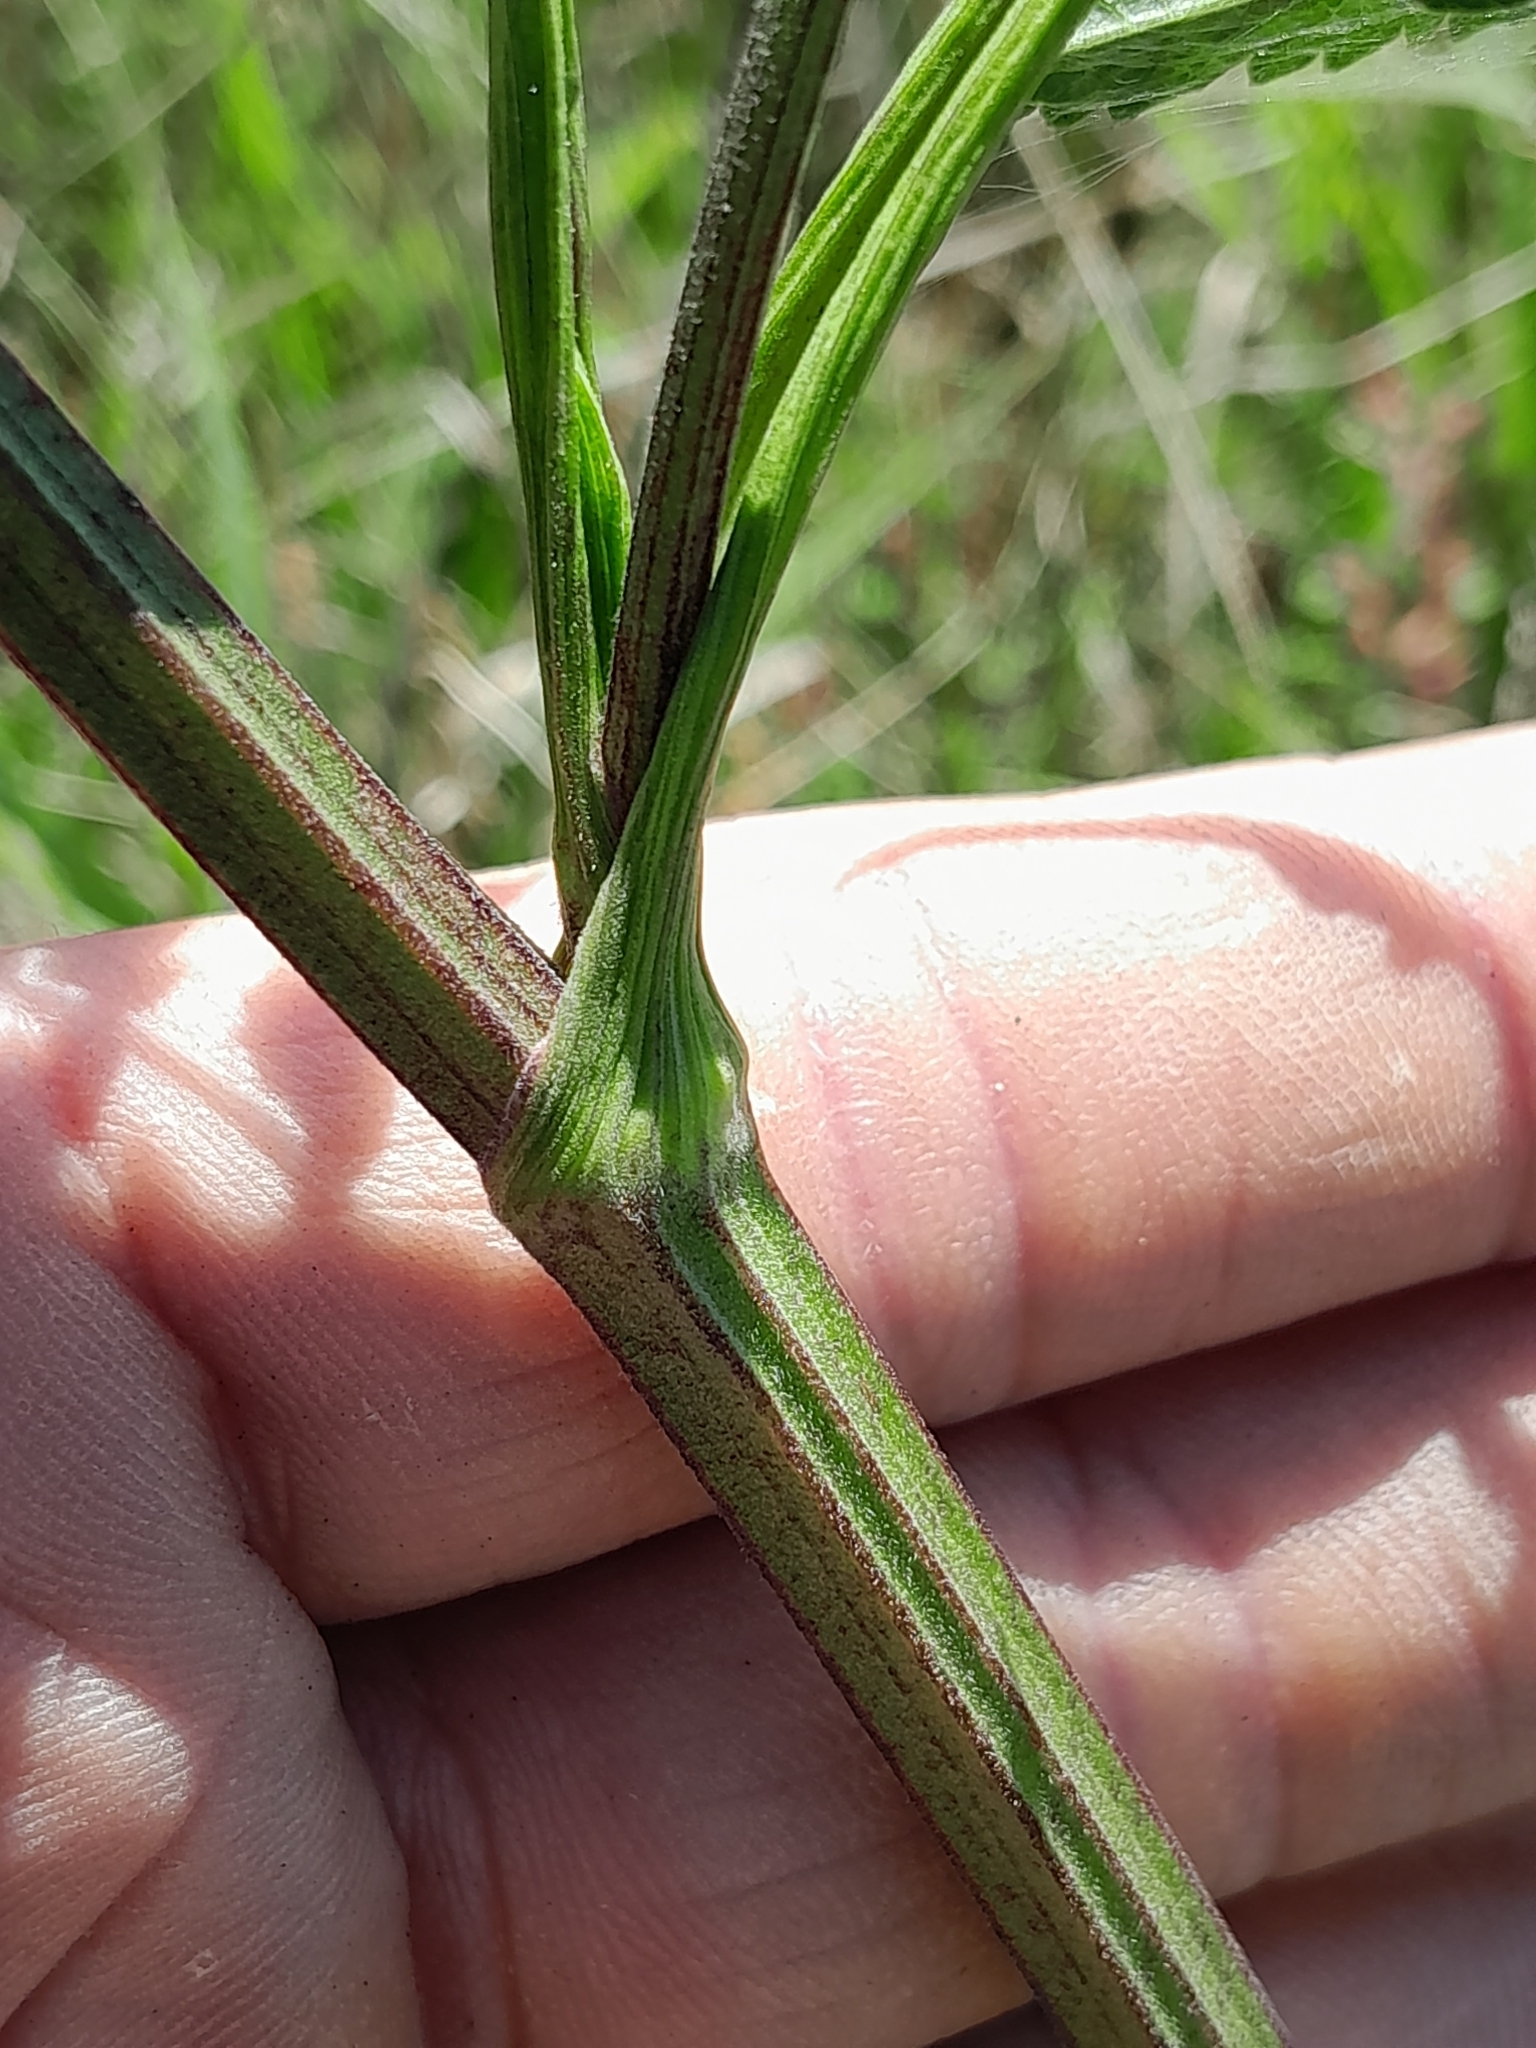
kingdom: Plantae
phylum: Tracheophyta
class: Magnoliopsida
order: Apiales
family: Apiaceae
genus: Pastinaca
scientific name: Pastinaca sativa
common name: Wild parsnip
